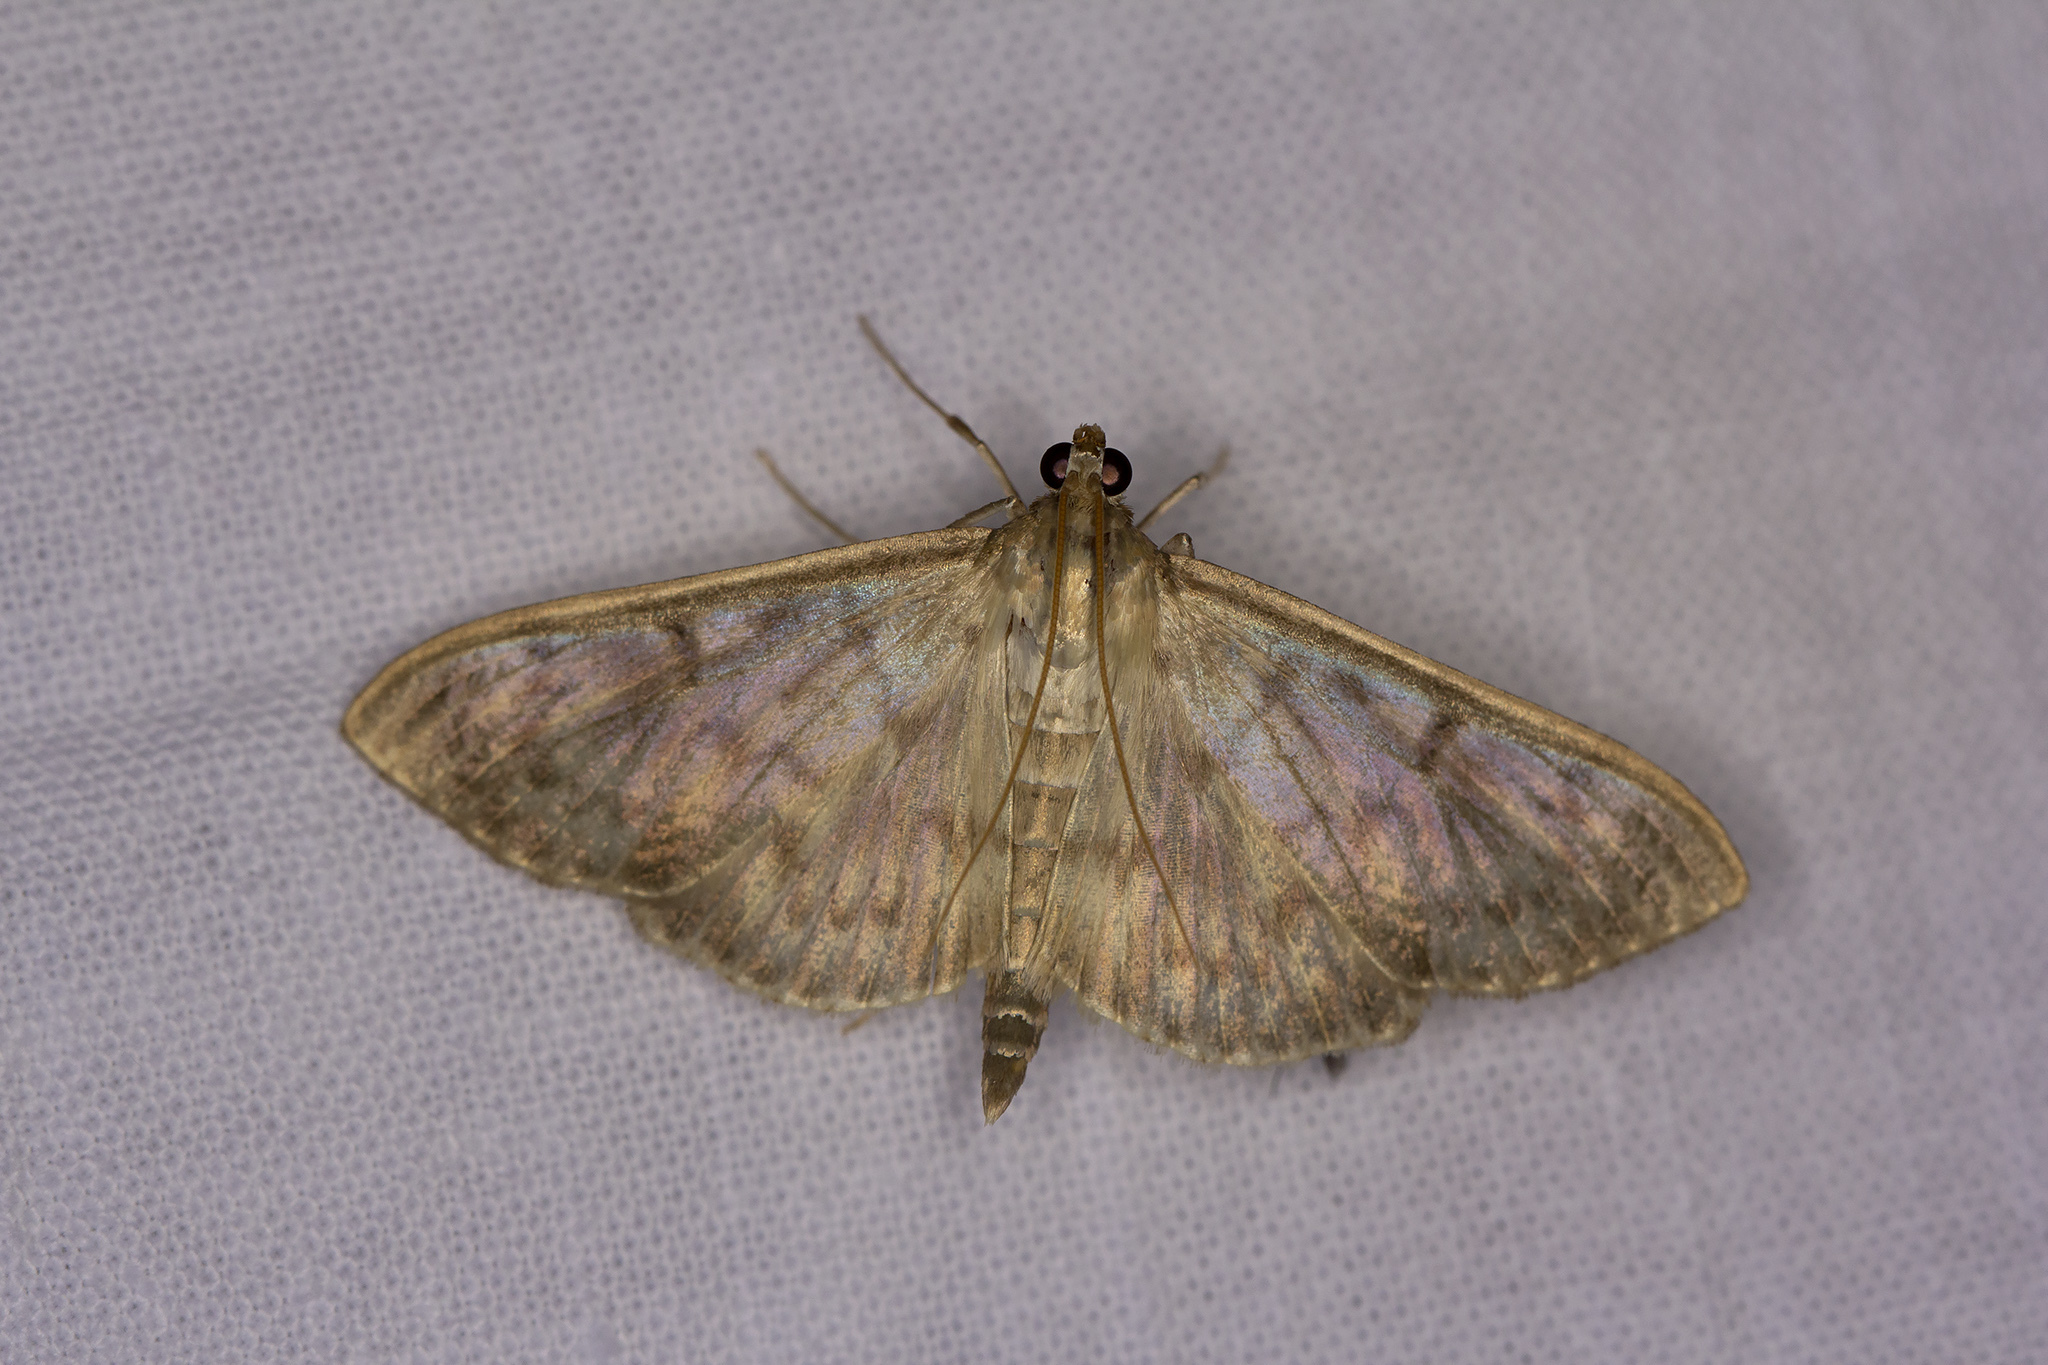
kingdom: Animalia
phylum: Arthropoda
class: Insecta
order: Lepidoptera
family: Crambidae
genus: Patania
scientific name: Patania ruralis
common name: Mother of pearl
